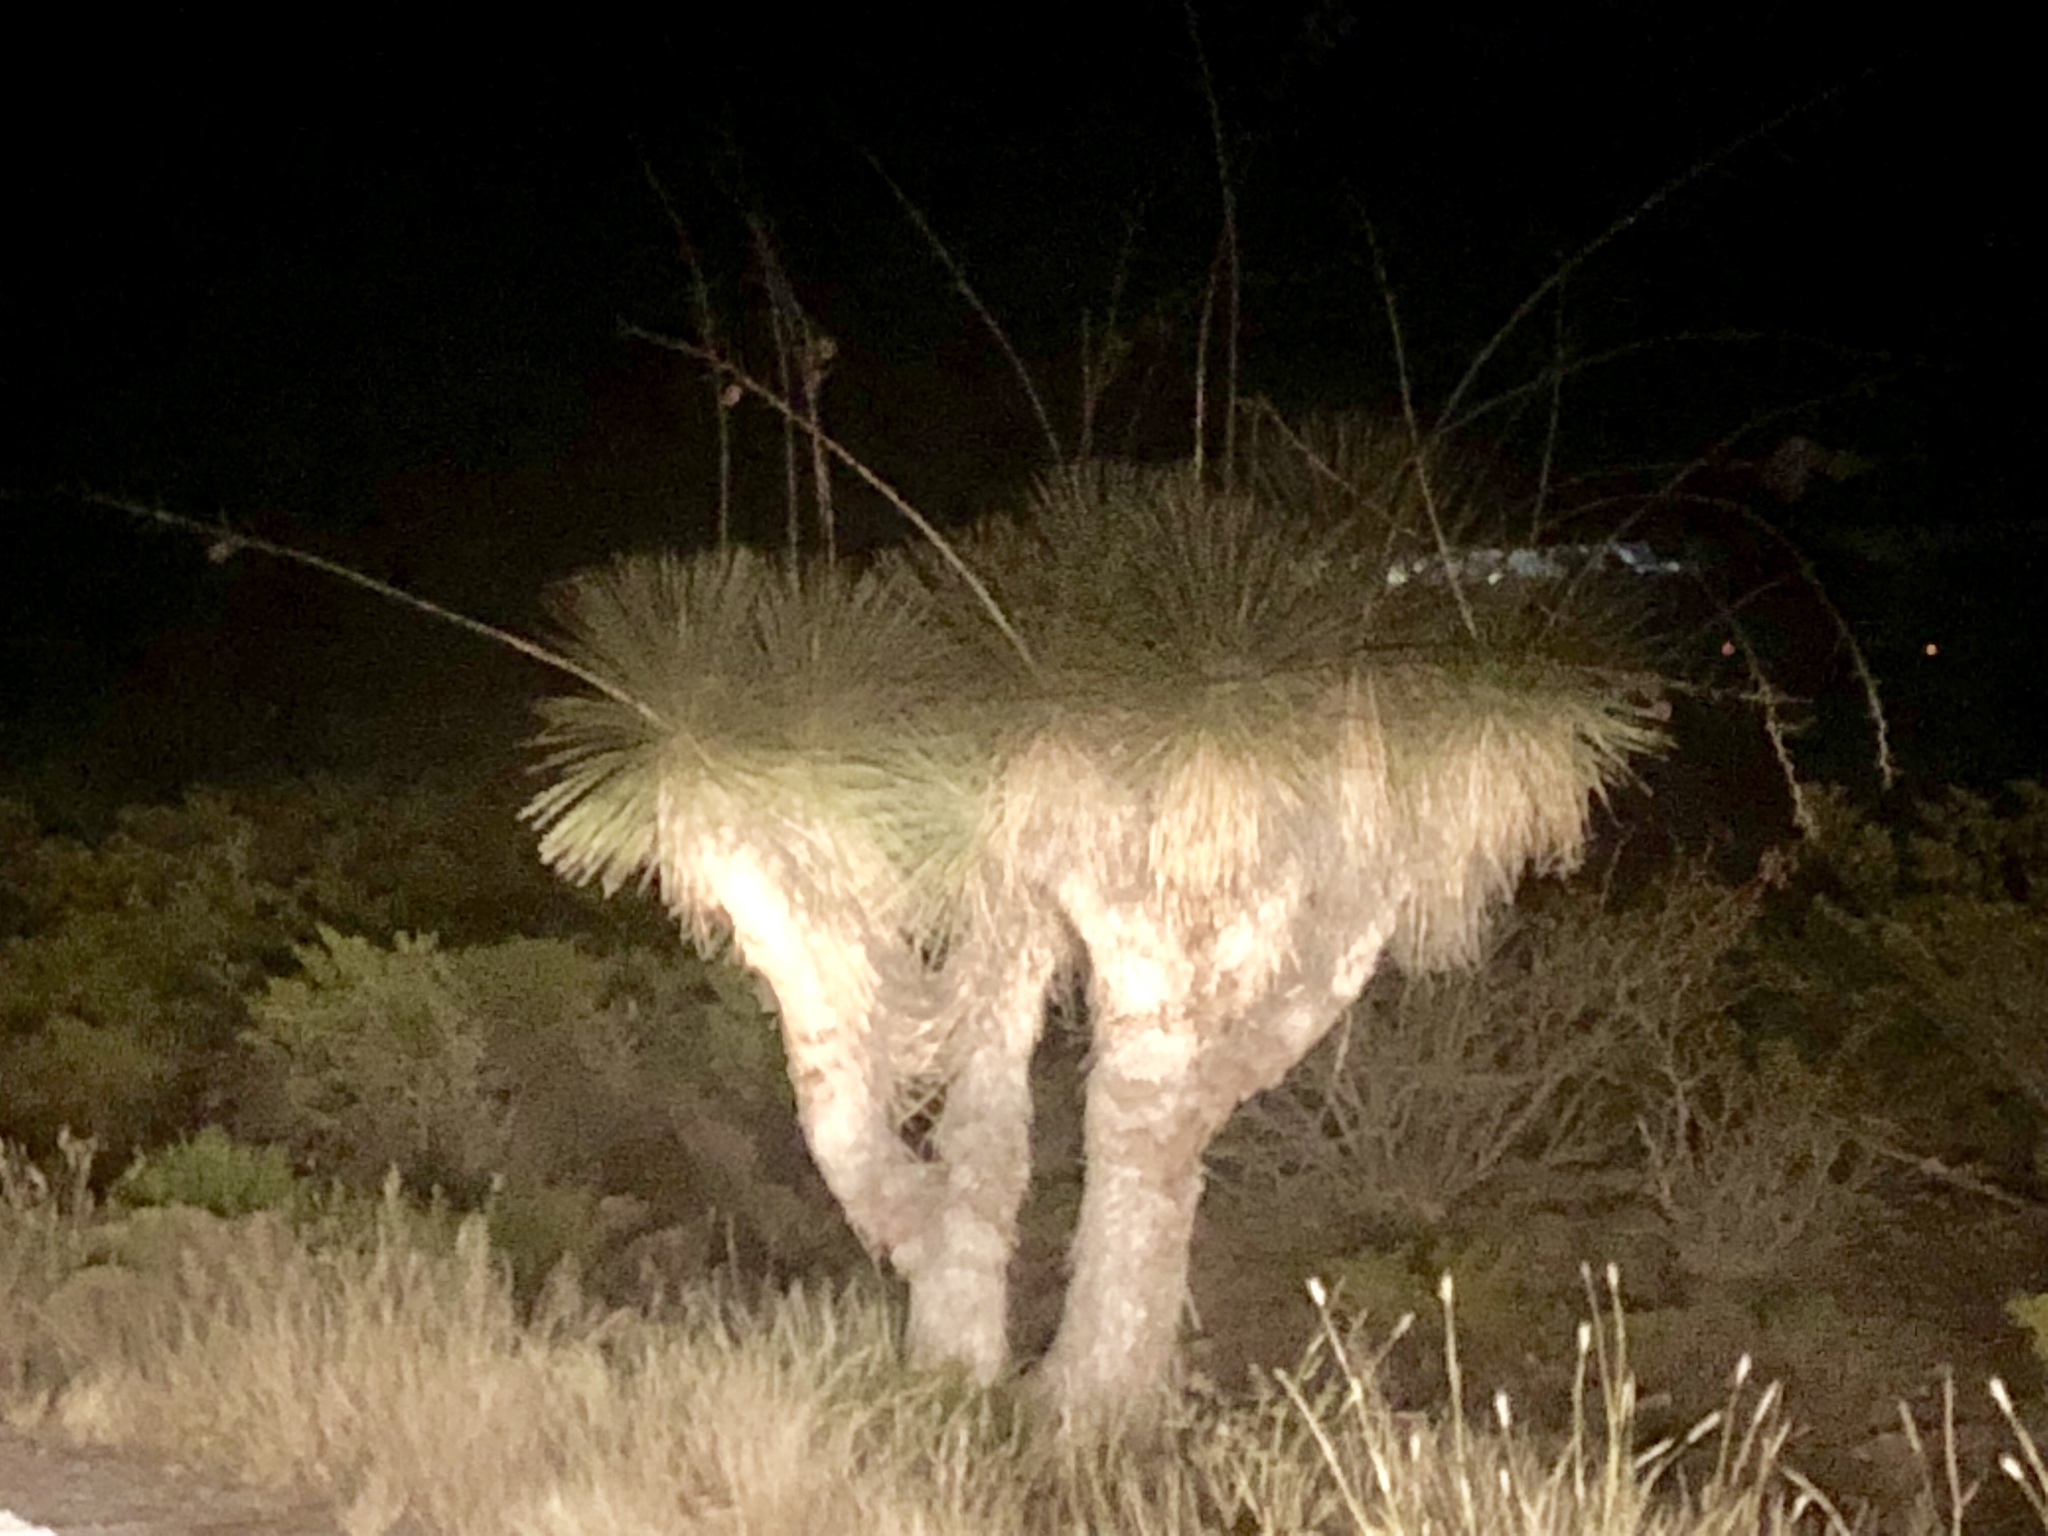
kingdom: Plantae
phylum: Tracheophyta
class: Liliopsida
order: Asparagales
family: Asparagaceae
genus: Yucca
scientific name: Yucca elata
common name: Palmella
